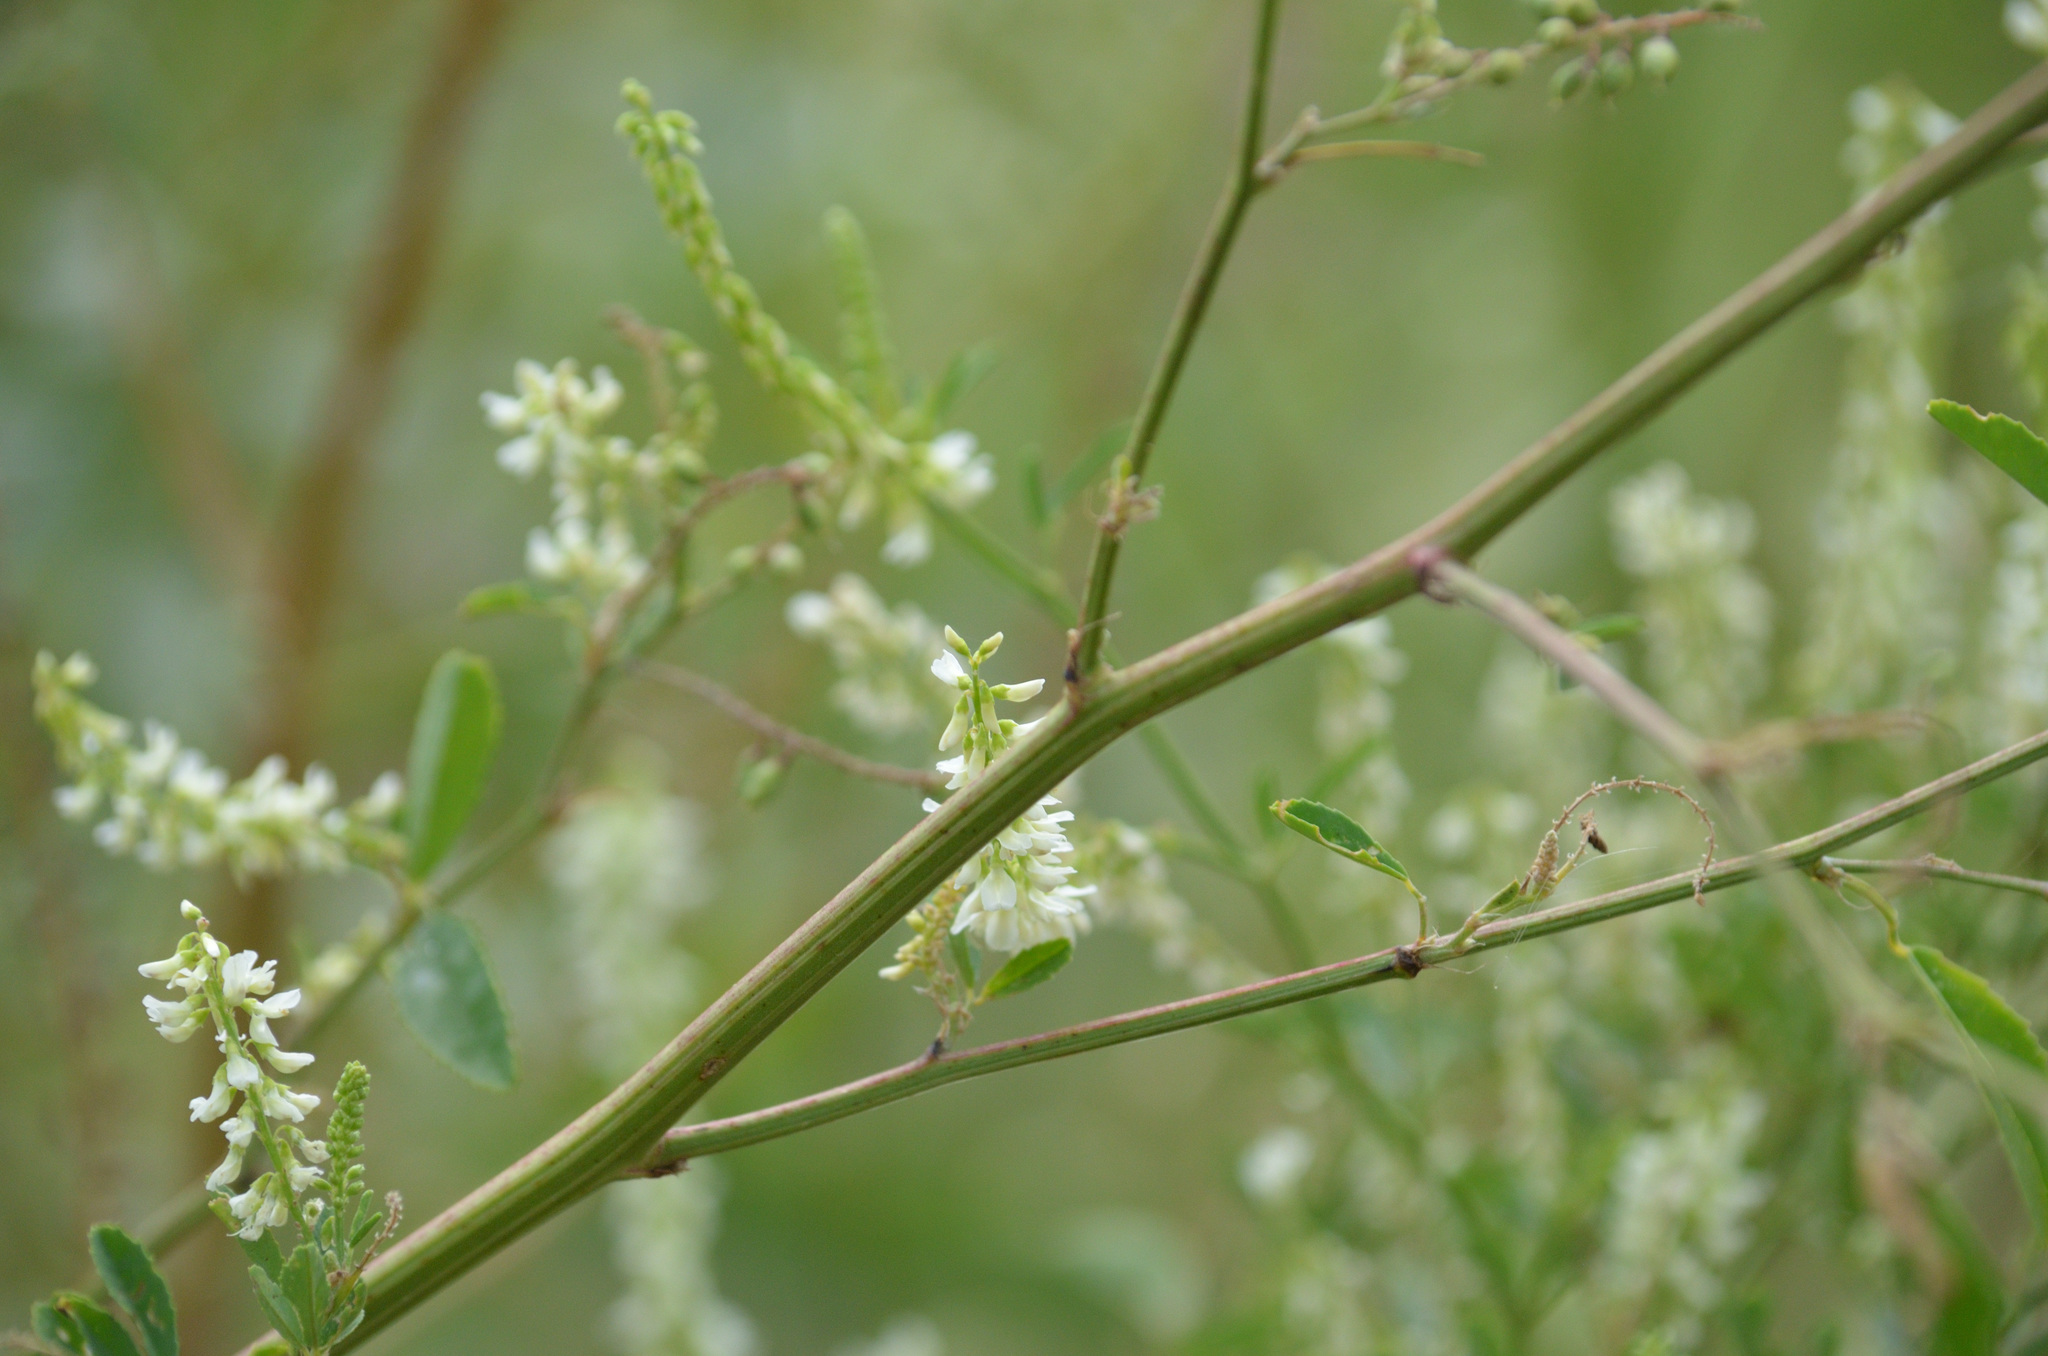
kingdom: Plantae
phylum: Tracheophyta
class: Magnoliopsida
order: Fabales
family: Fabaceae
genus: Melilotus
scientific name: Melilotus albus
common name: White melilot
